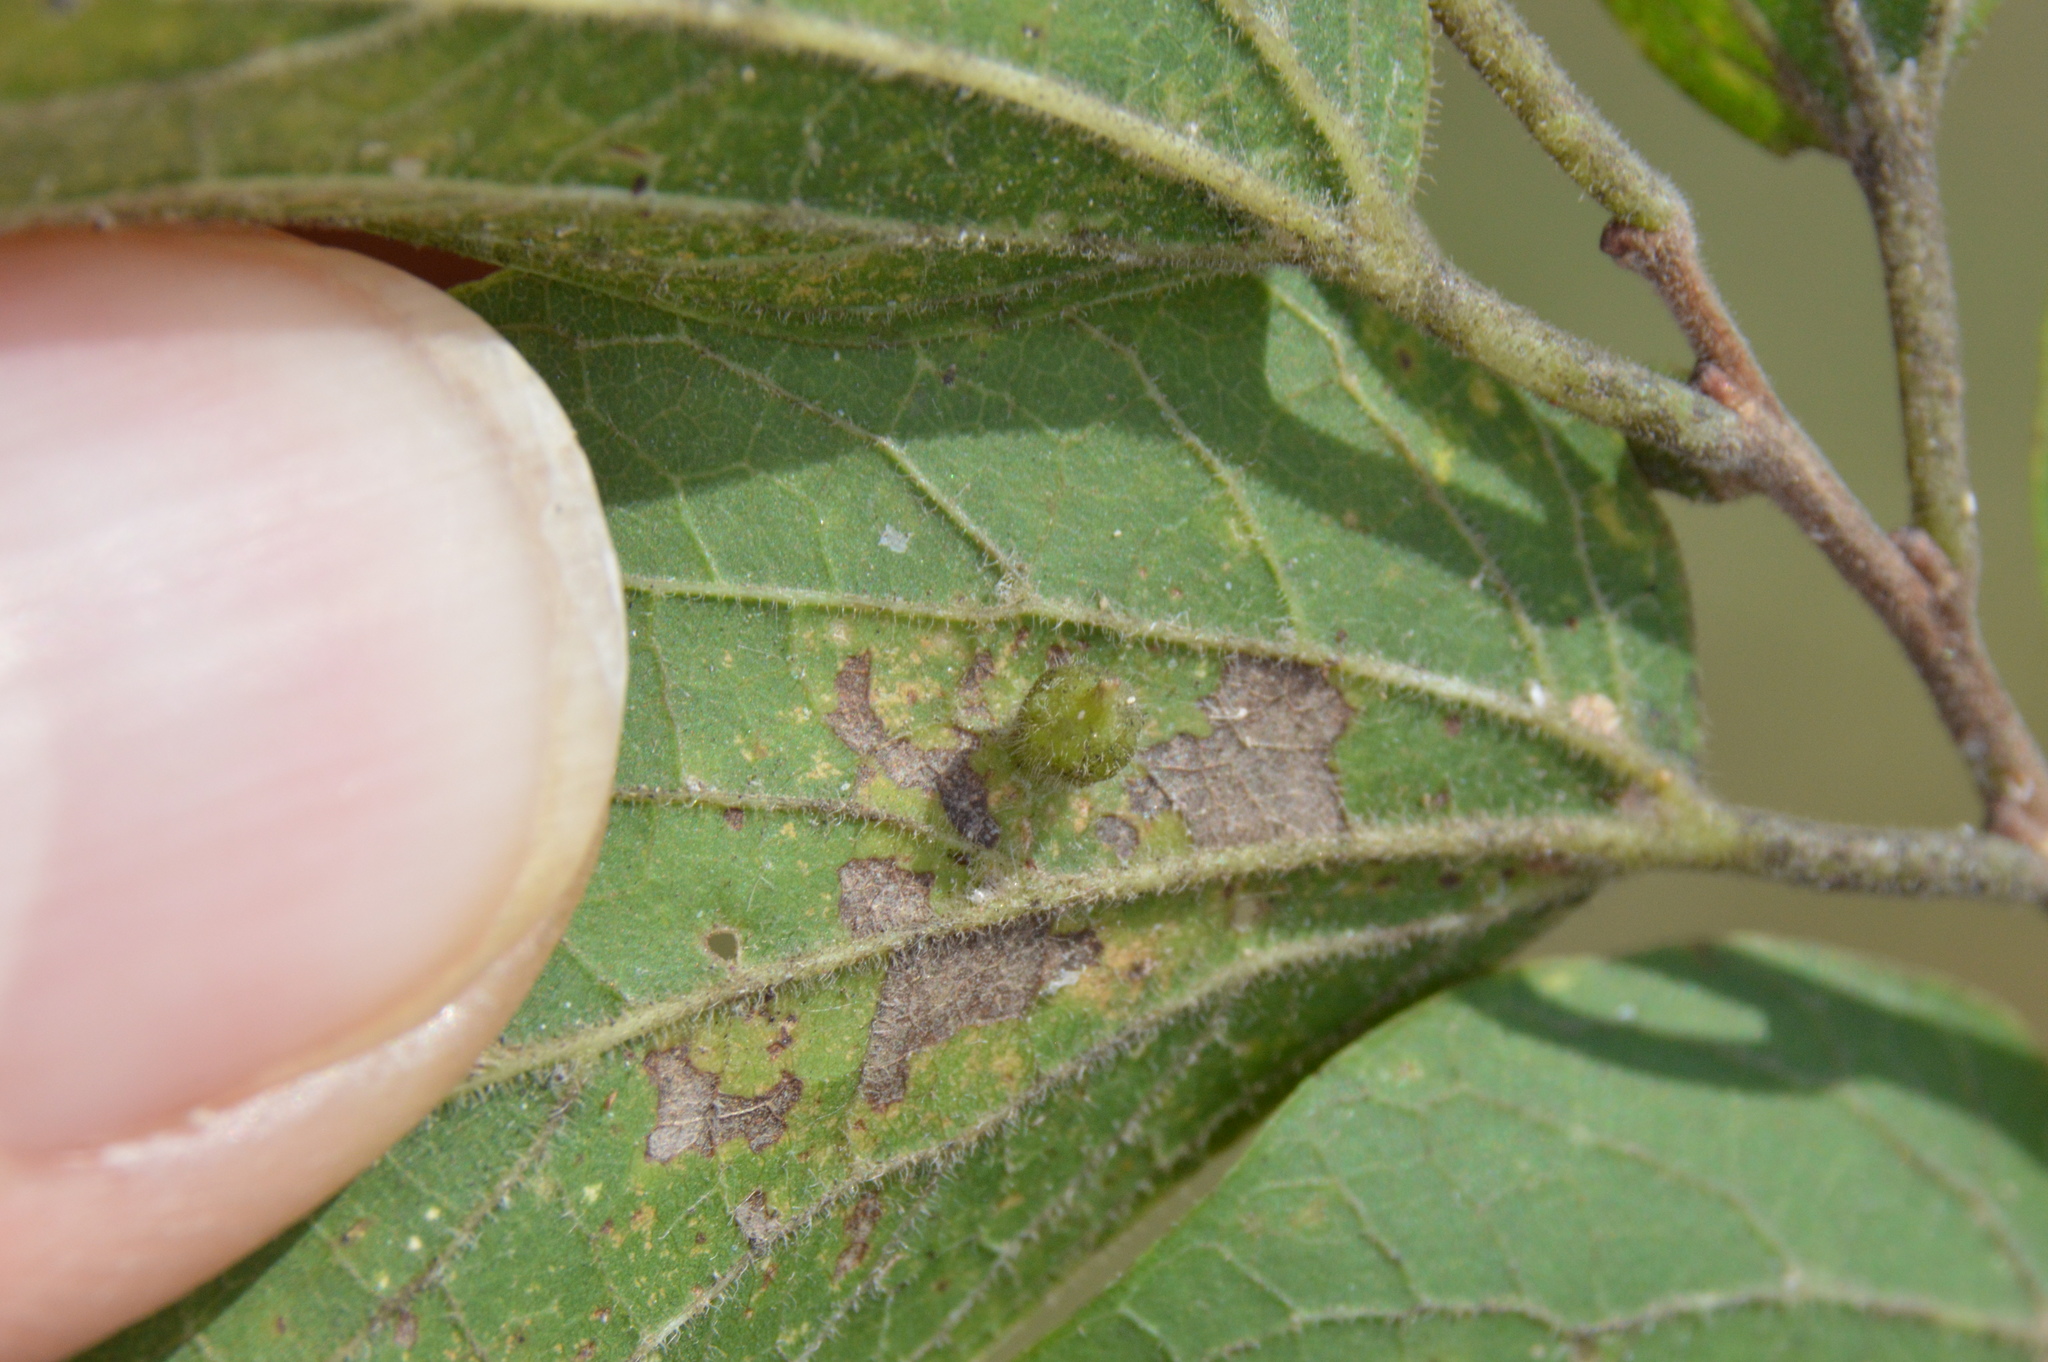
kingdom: Animalia
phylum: Arthropoda
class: Insecta
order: Diptera
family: Cecidomyiidae
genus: Celticecis
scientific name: Celticecis ramicola
